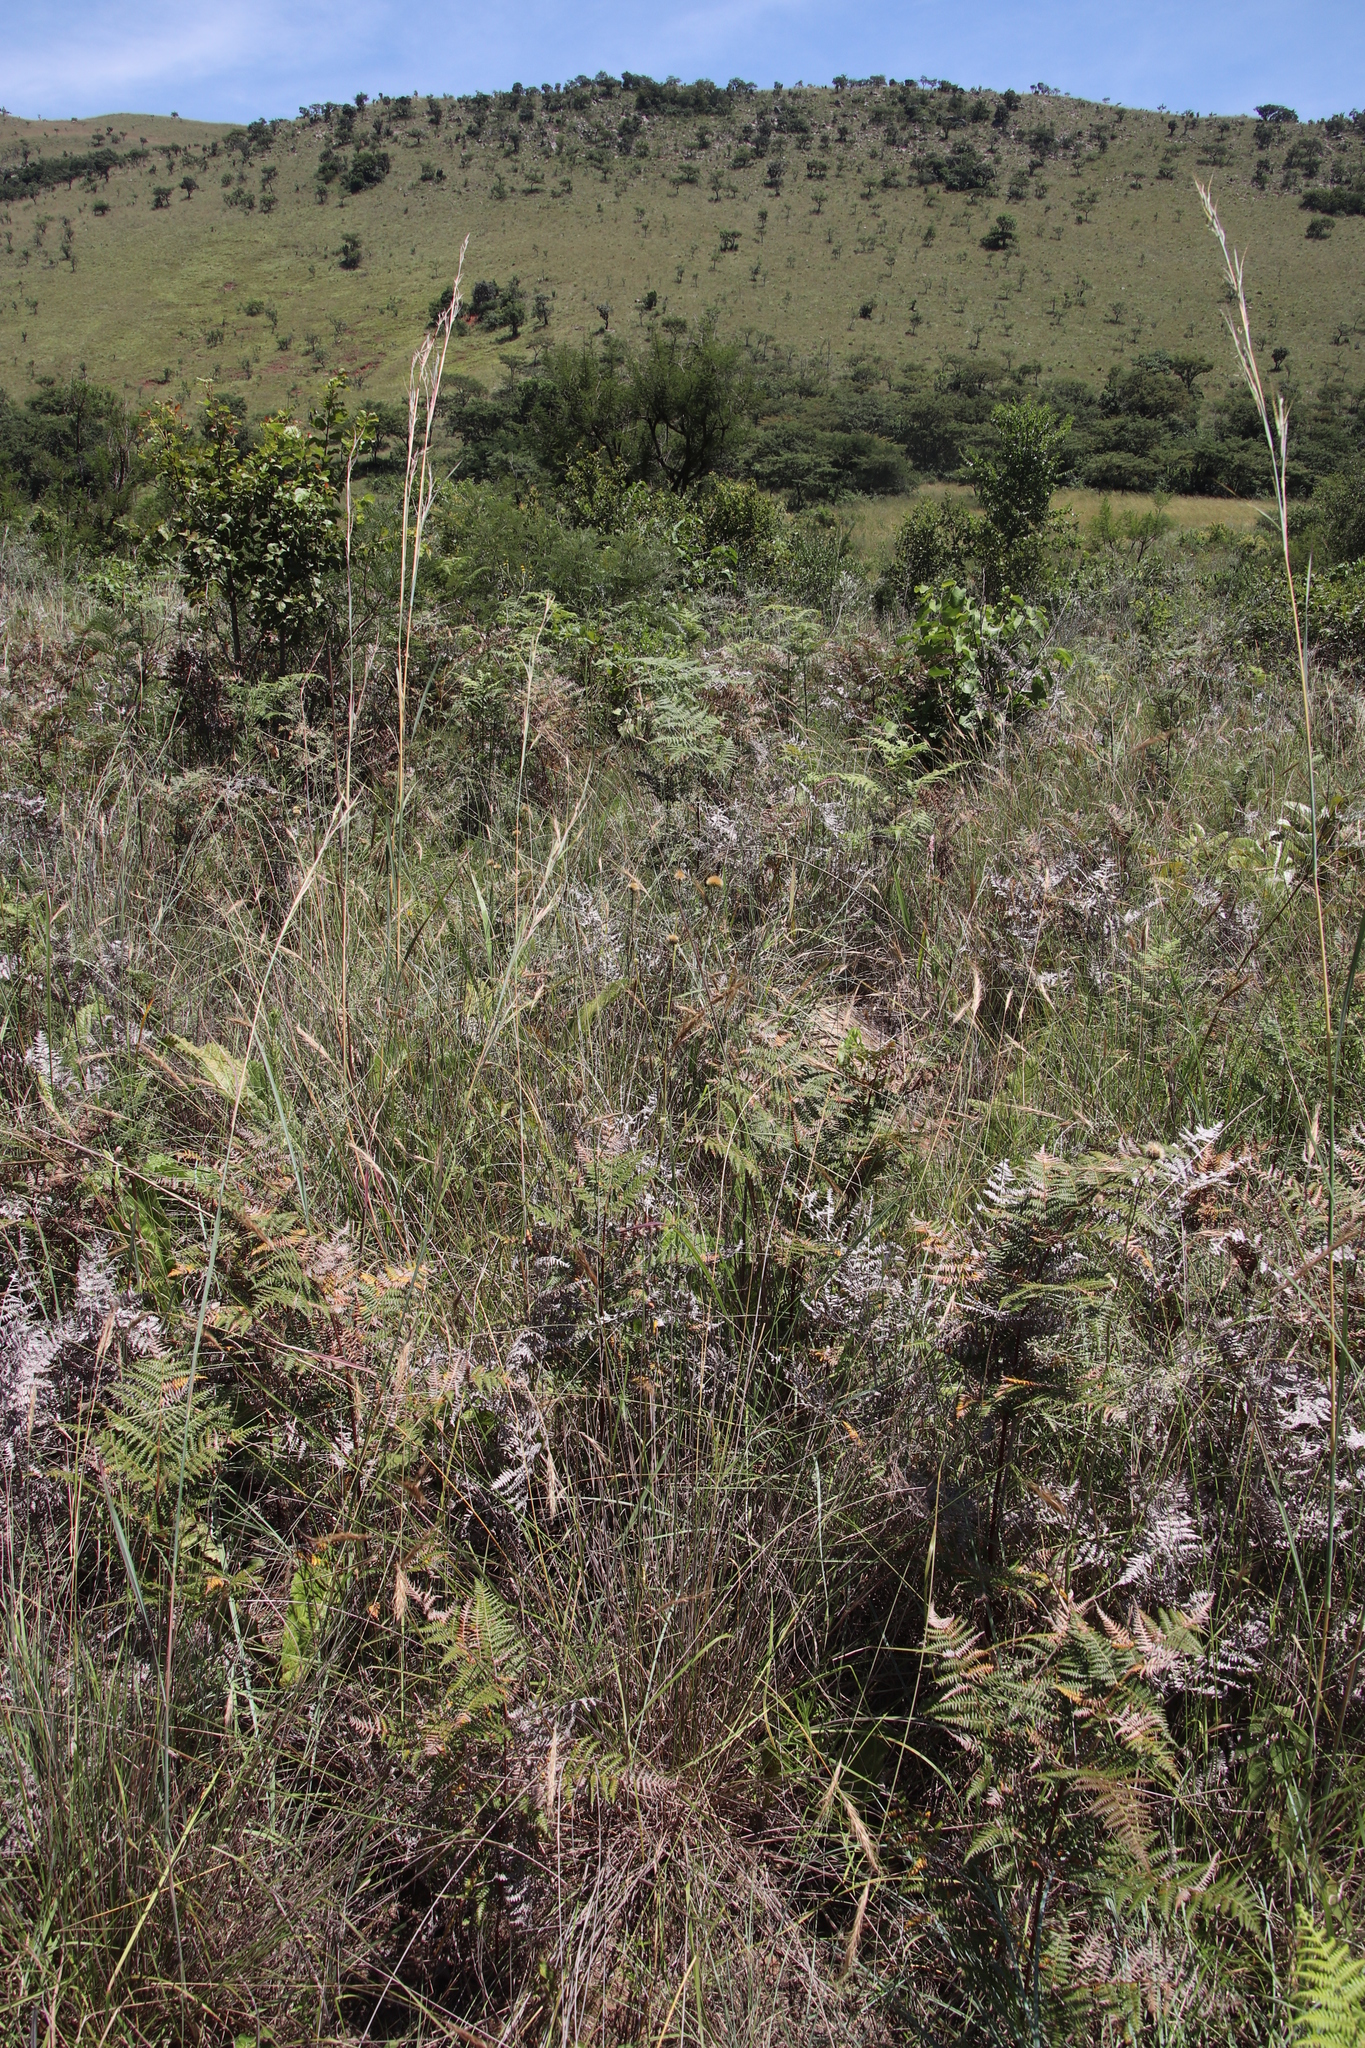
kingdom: Plantae
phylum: Tracheophyta
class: Polypodiopsida
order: Polypodiales
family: Dennstaedtiaceae
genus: Pteridium
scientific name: Pteridium aquilinum
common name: Bracken
